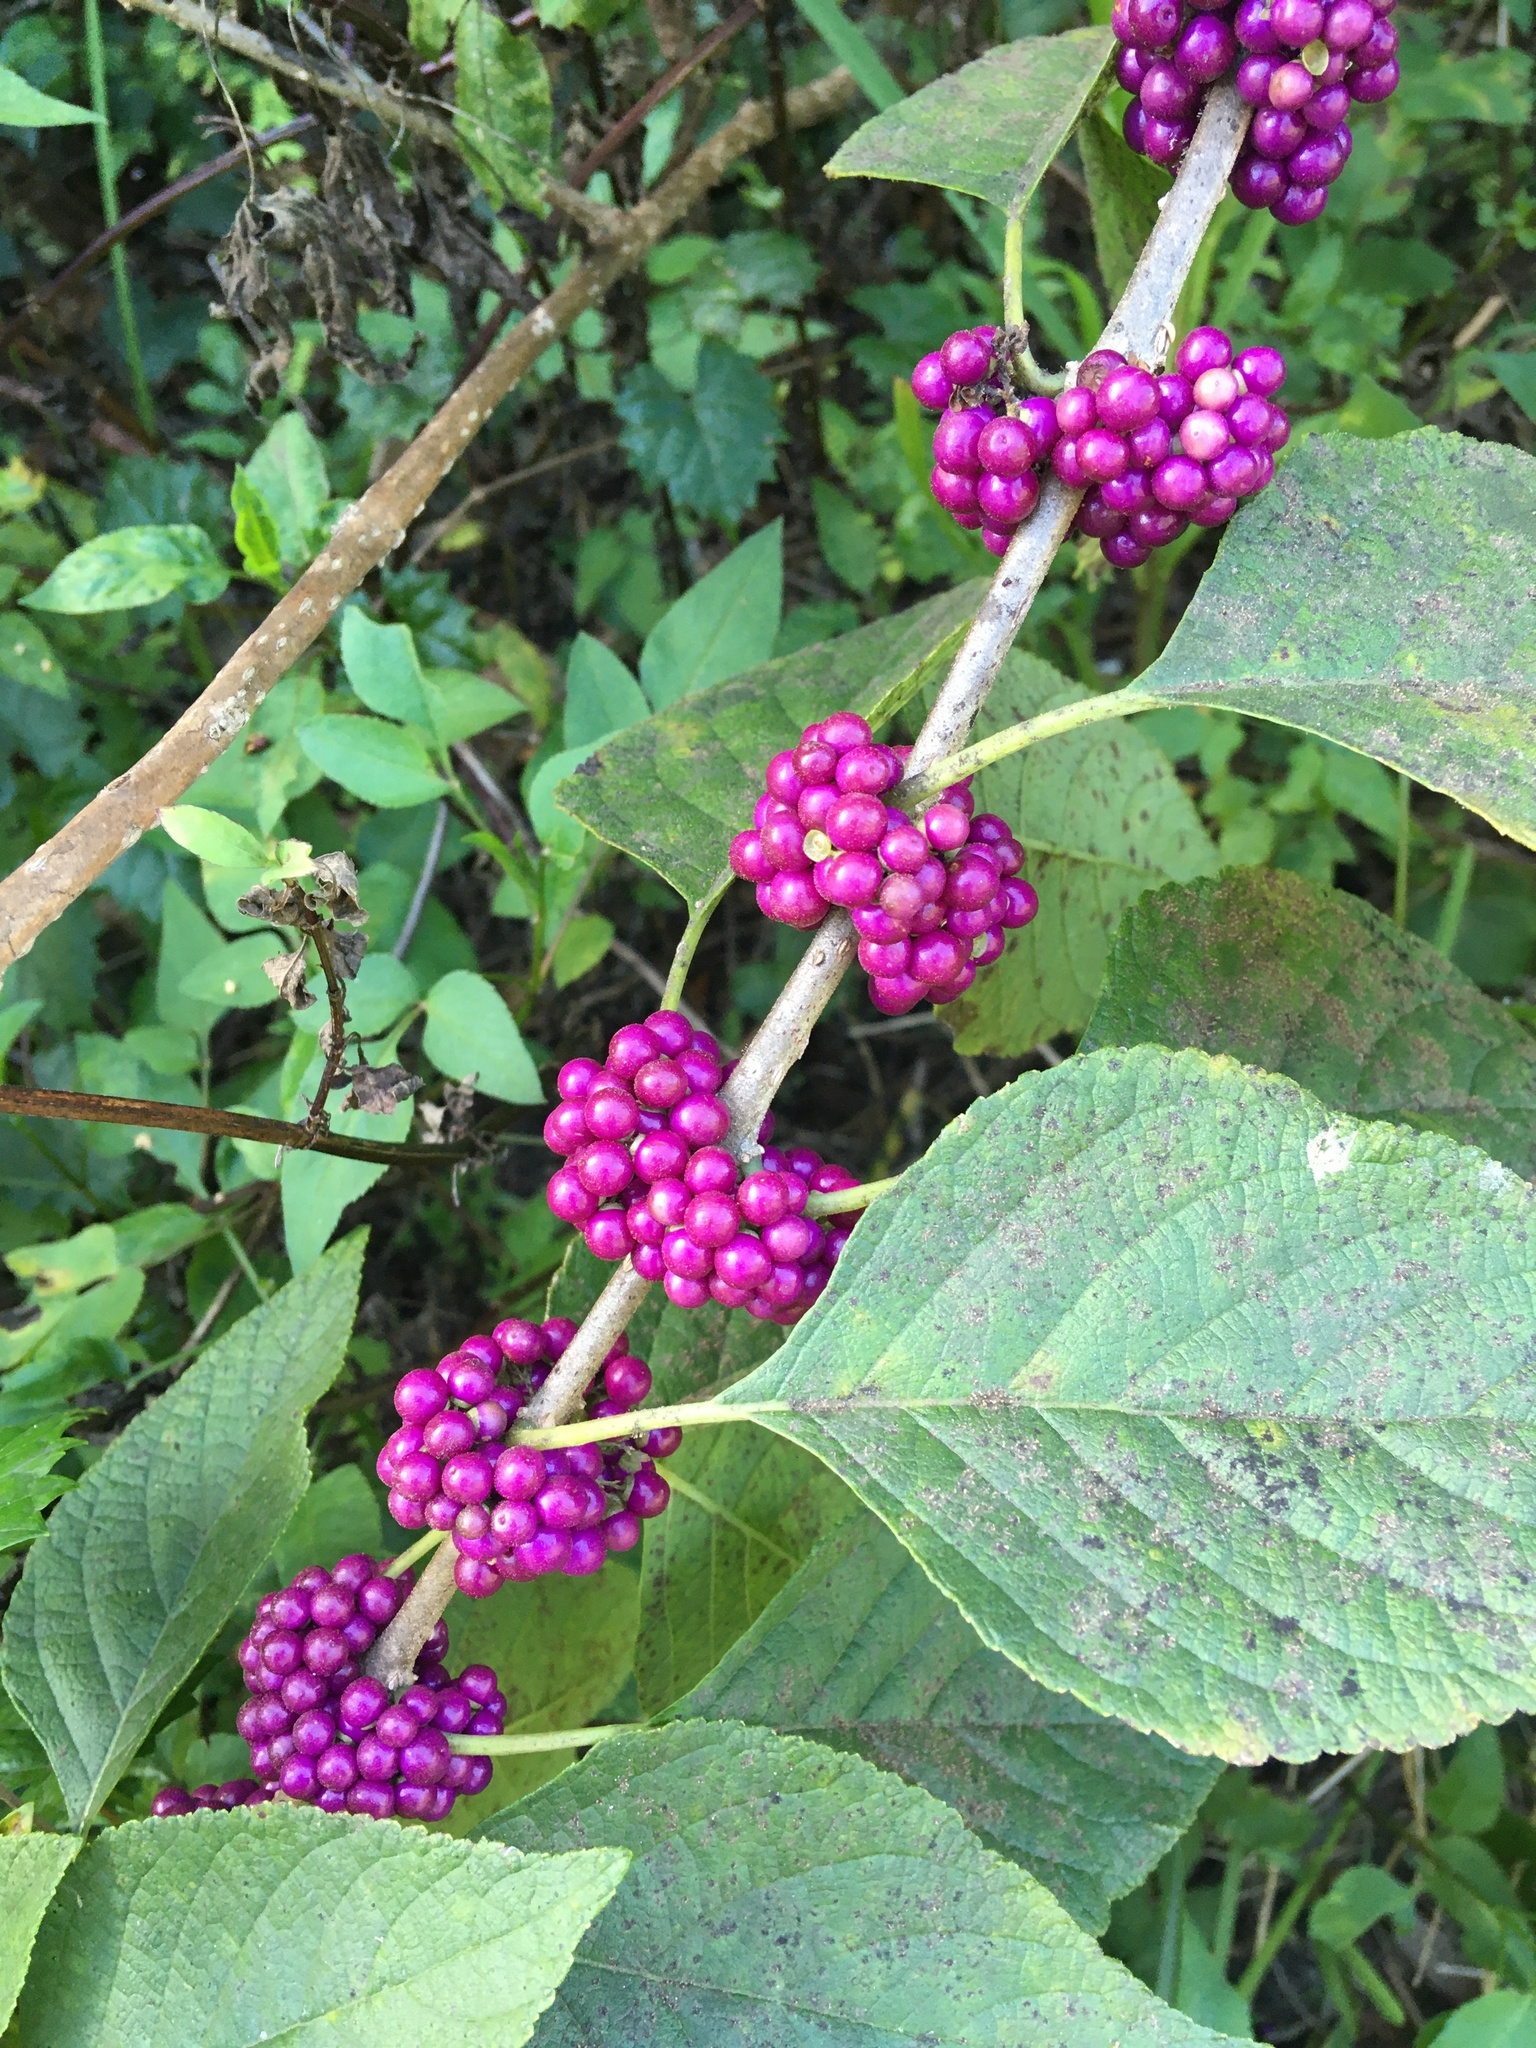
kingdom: Plantae
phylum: Tracheophyta
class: Magnoliopsida
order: Lamiales
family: Lamiaceae
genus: Callicarpa
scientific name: Callicarpa americana
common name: American beautyberry
